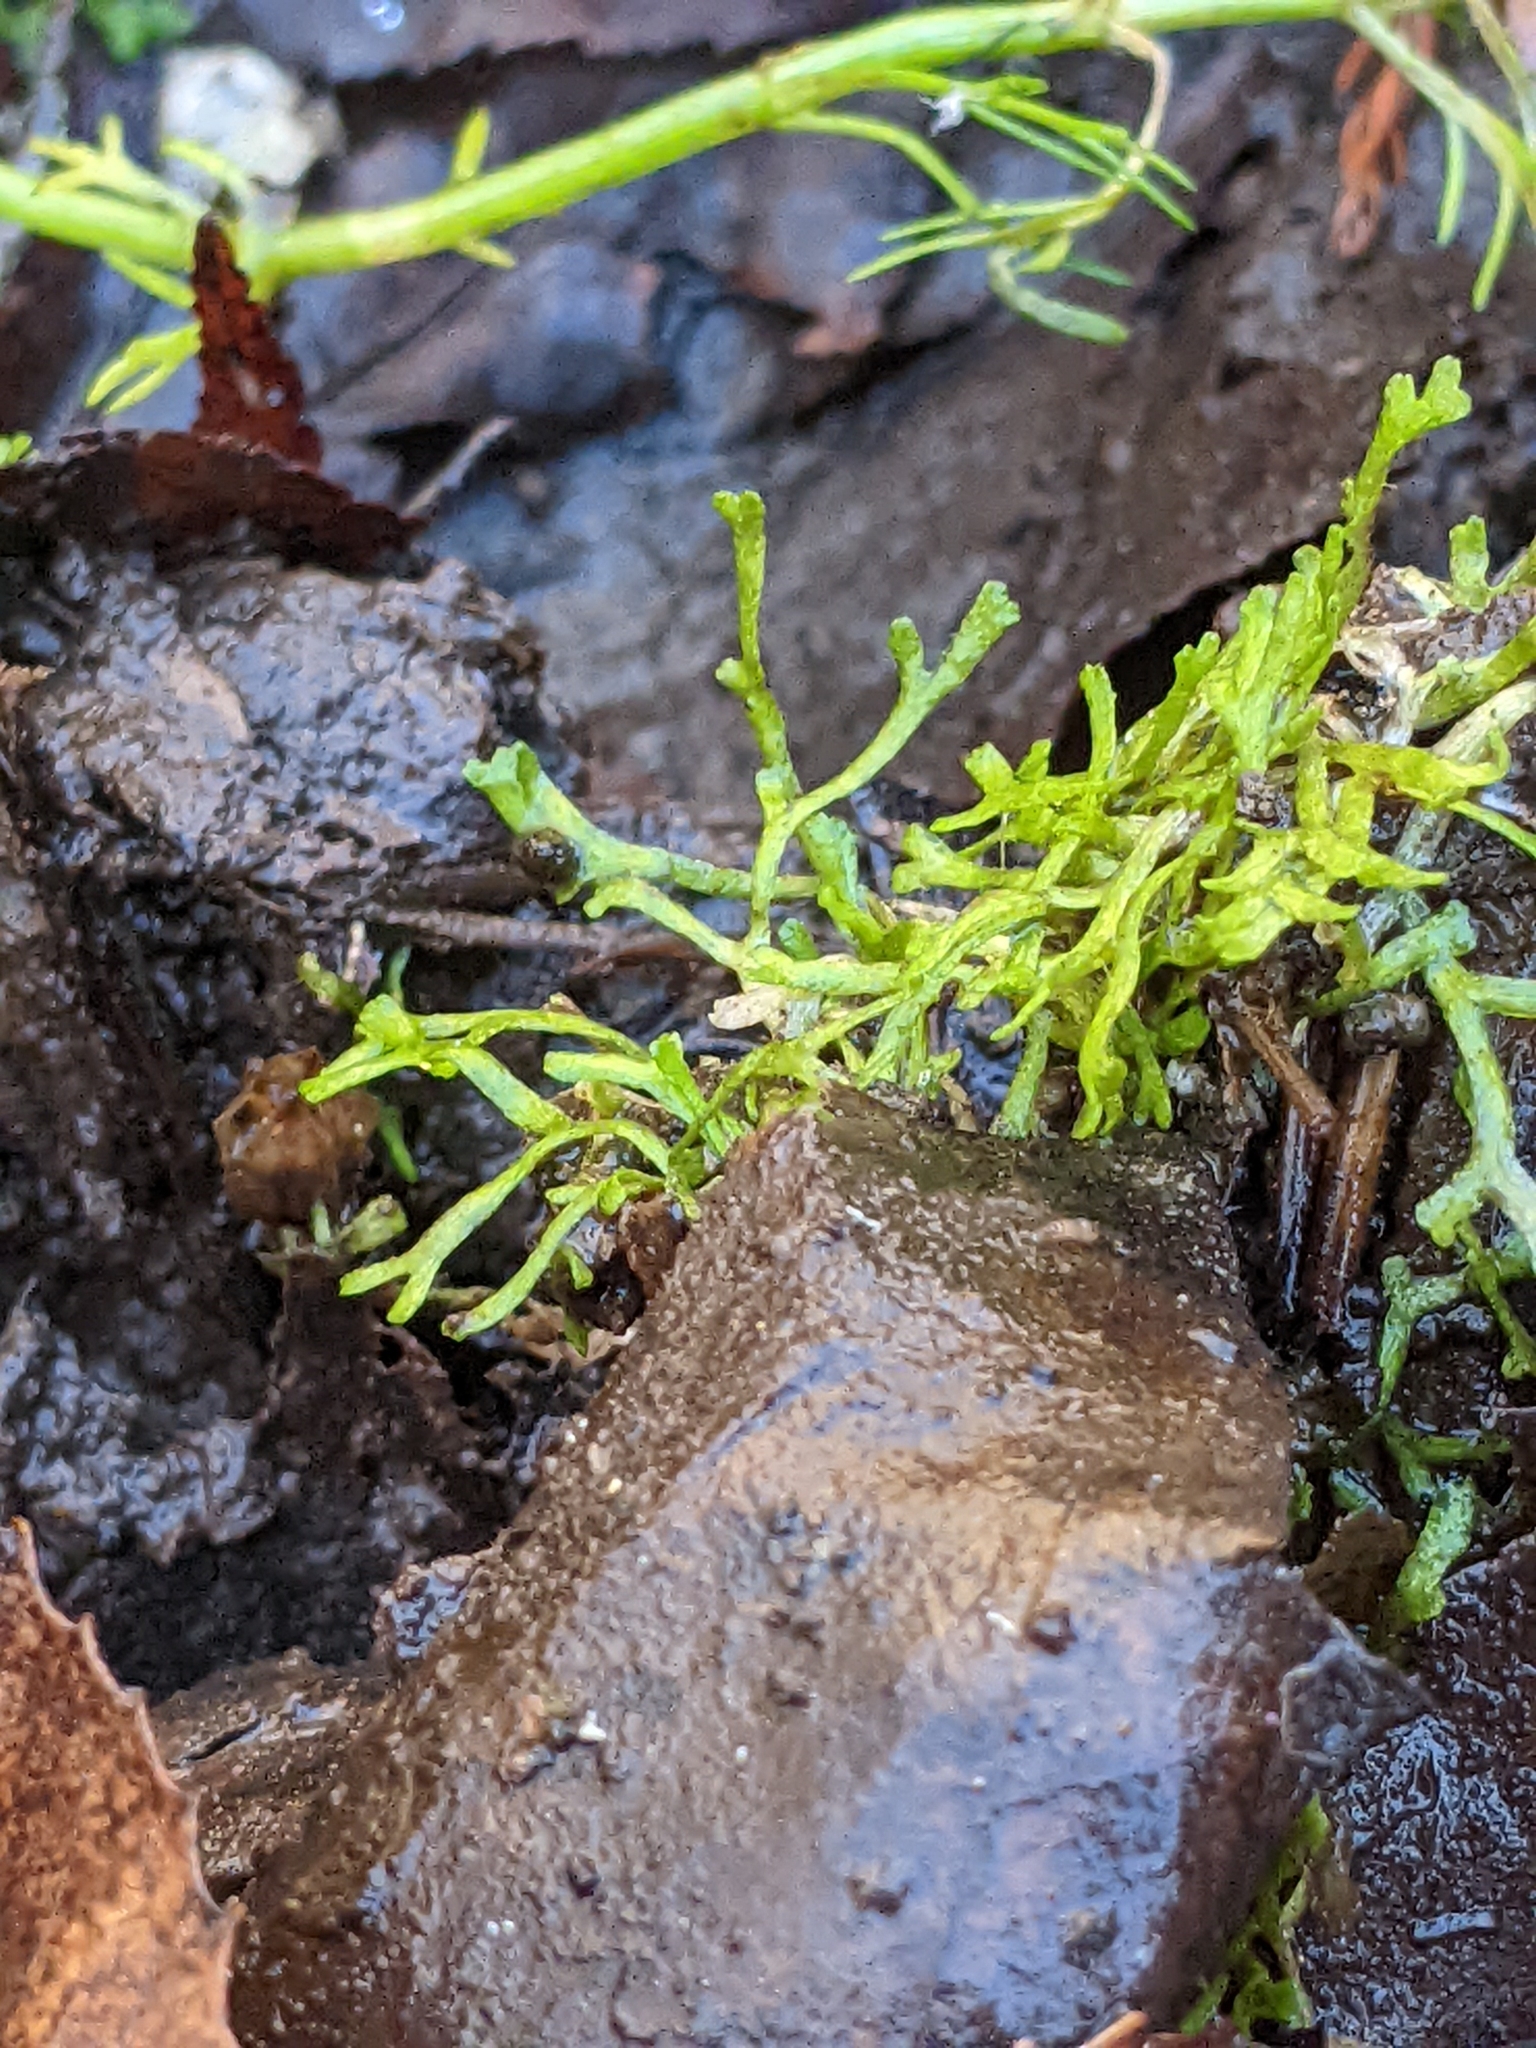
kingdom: Plantae
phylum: Marchantiophyta
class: Marchantiopsida
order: Marchantiales
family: Ricciaceae
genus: Riccia
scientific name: Riccia fluitans
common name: Floating crystalwort
